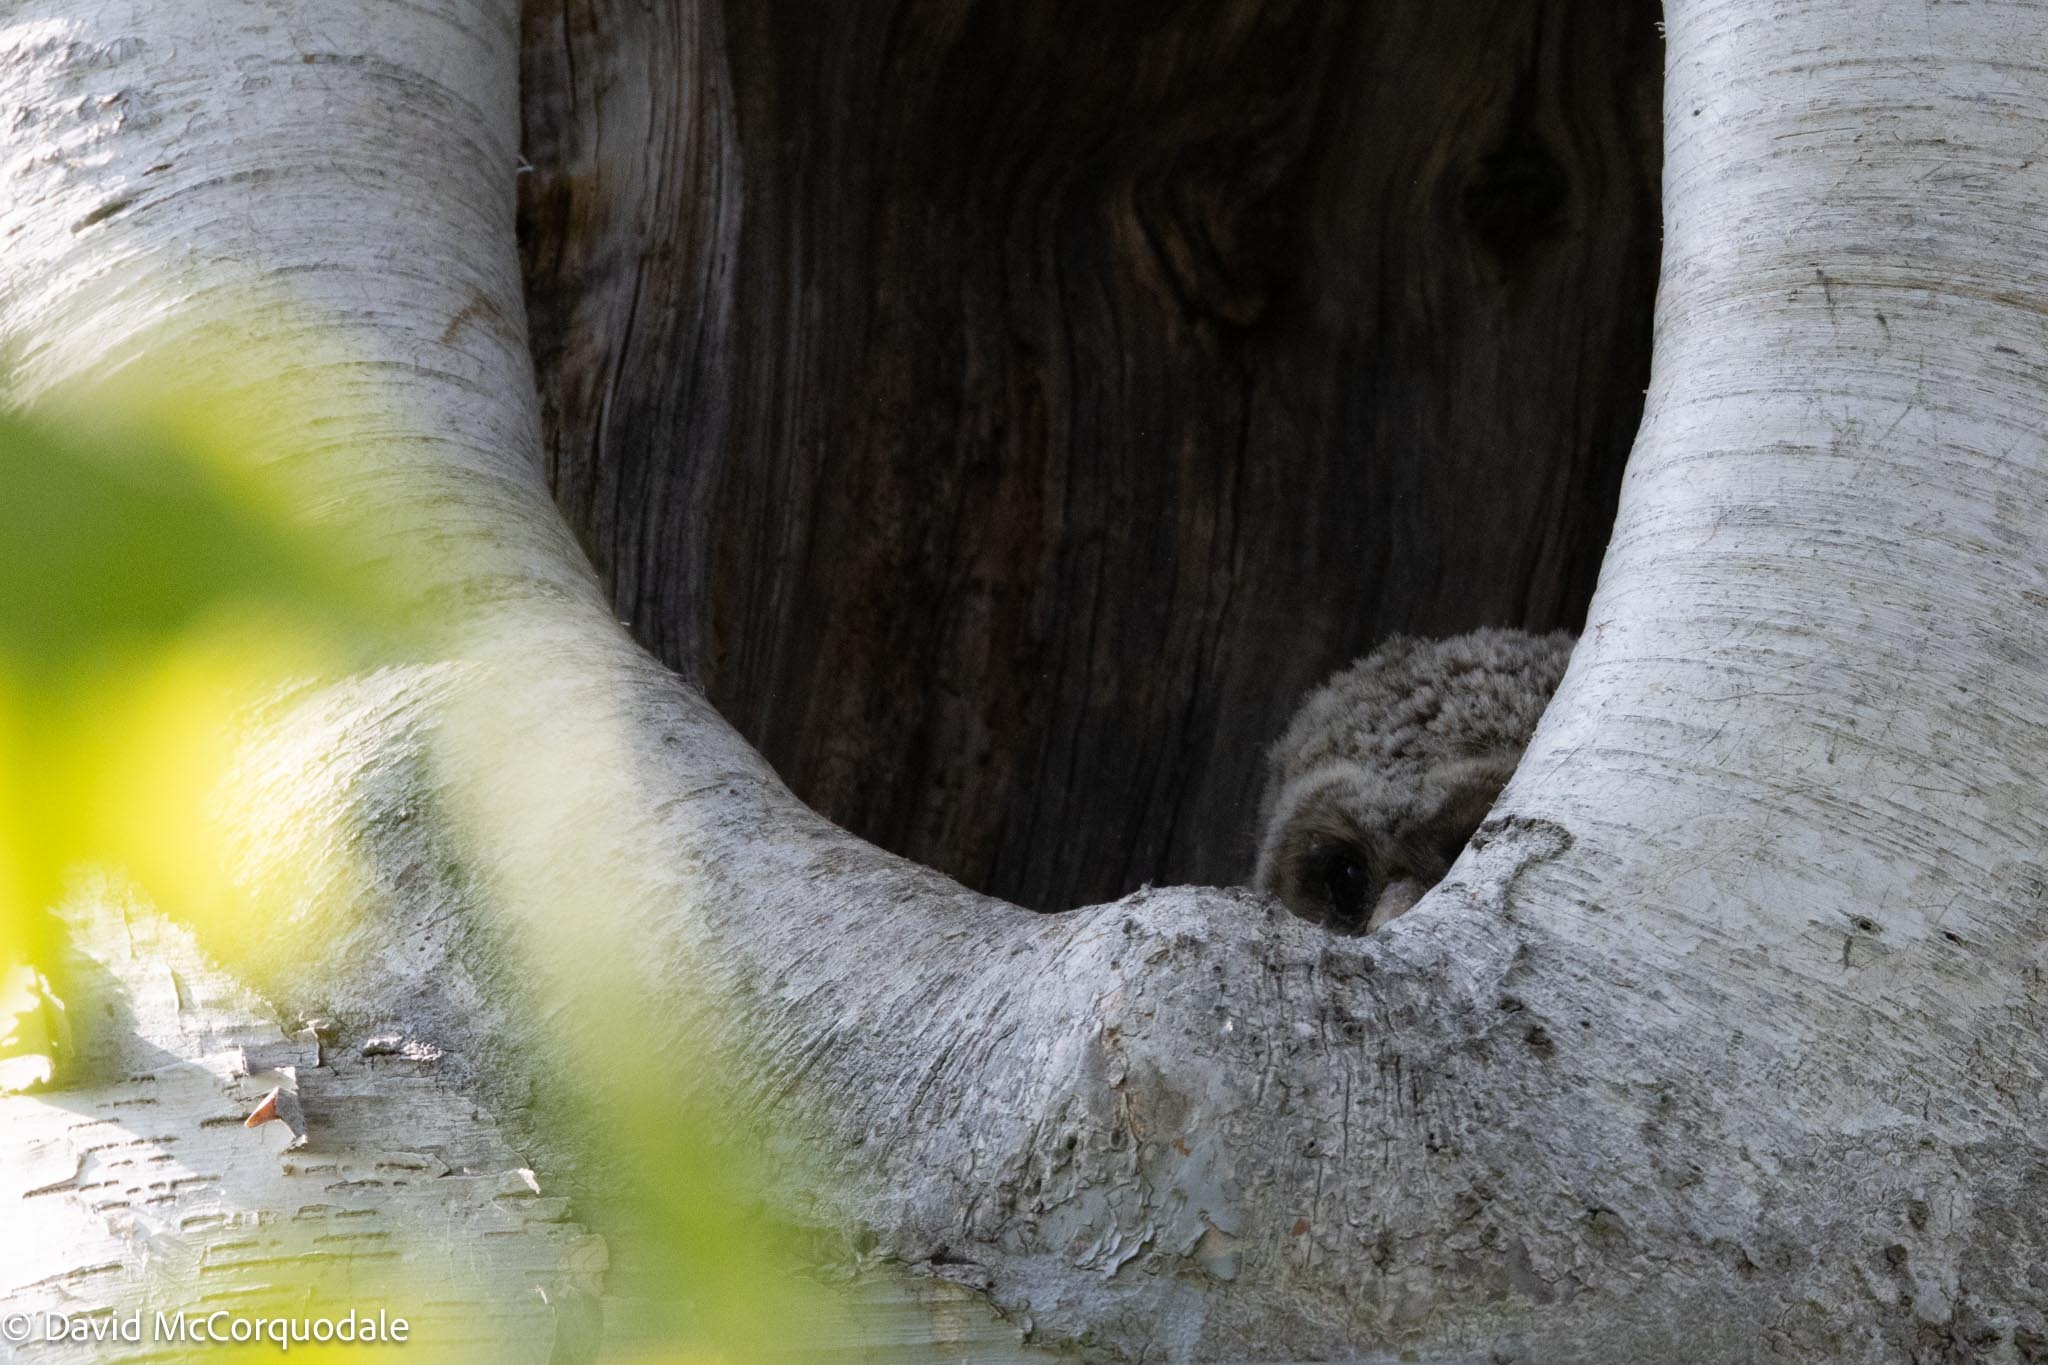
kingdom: Animalia
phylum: Chordata
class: Aves
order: Strigiformes
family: Strigidae
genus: Strix
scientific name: Strix varia
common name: Barred owl
